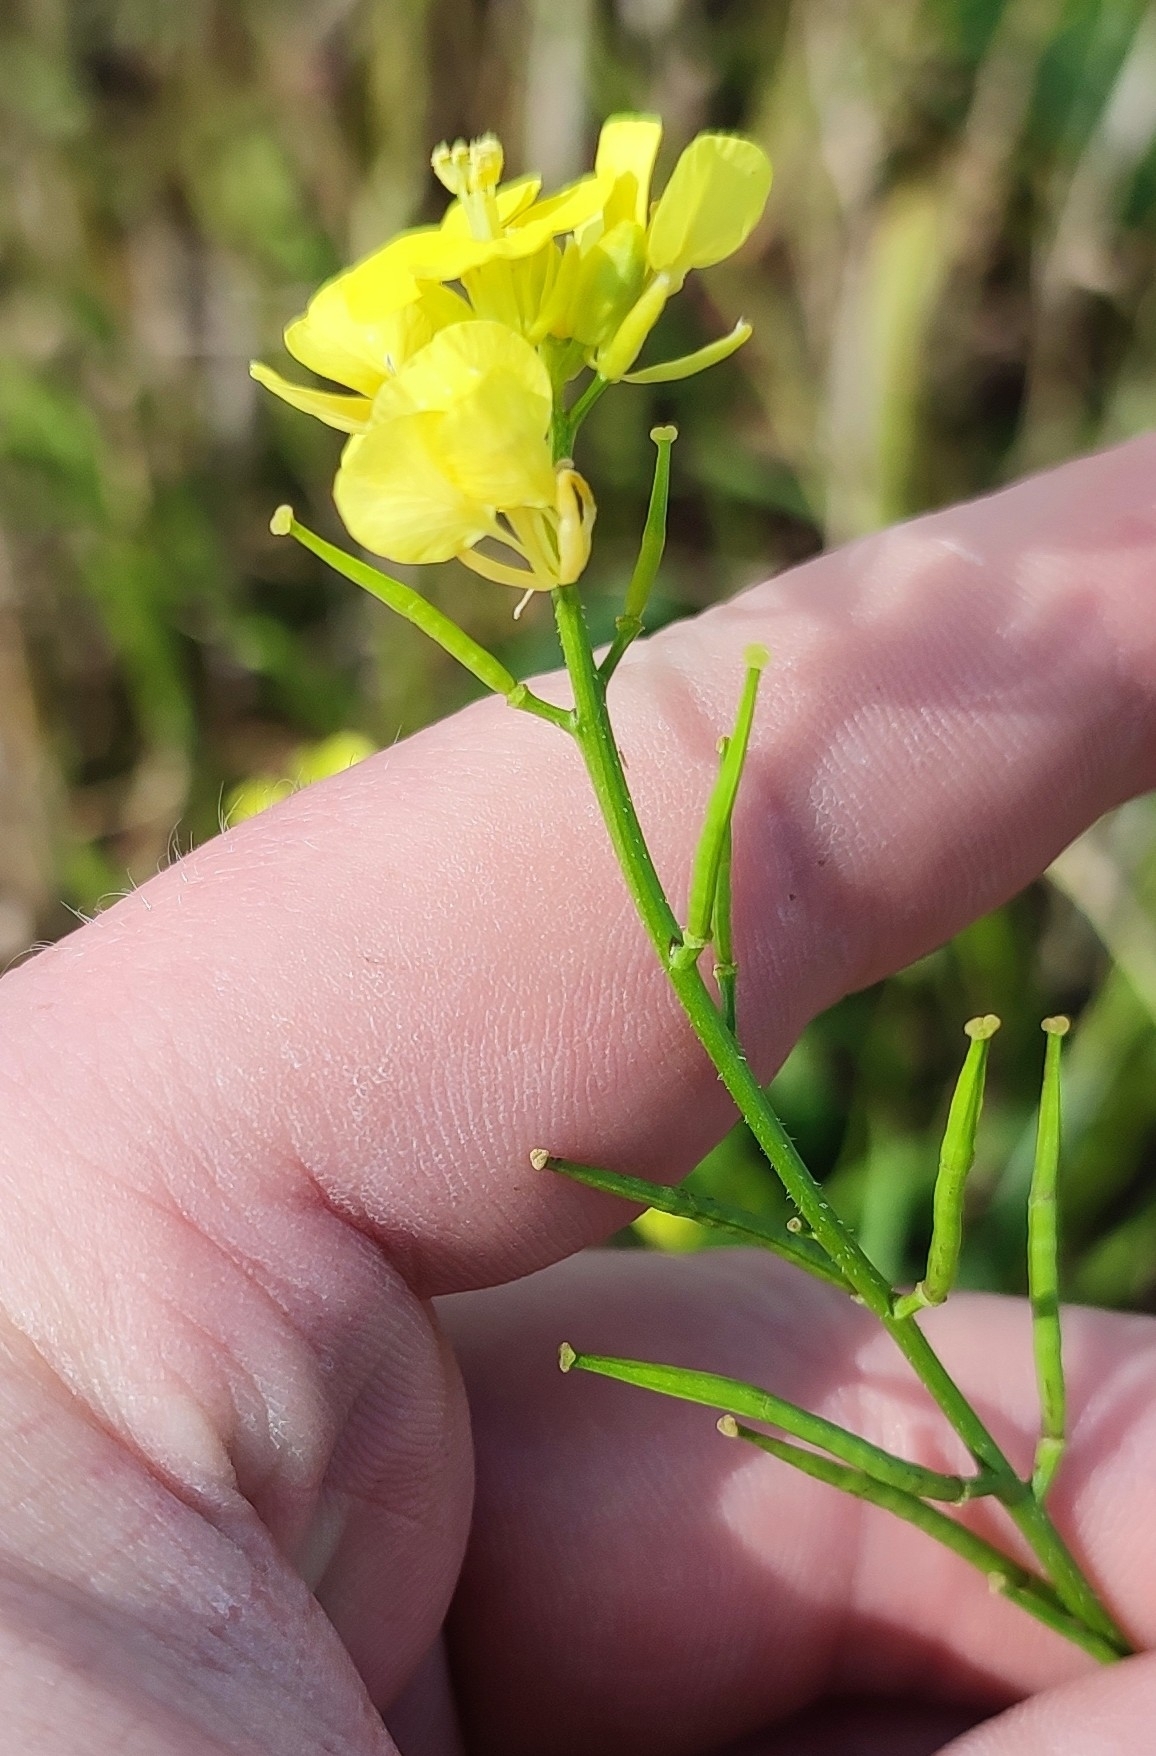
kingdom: Plantae
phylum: Tracheophyta
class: Magnoliopsida
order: Brassicales
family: Brassicaceae
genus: Sinapis
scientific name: Sinapis arvensis
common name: Charlock
